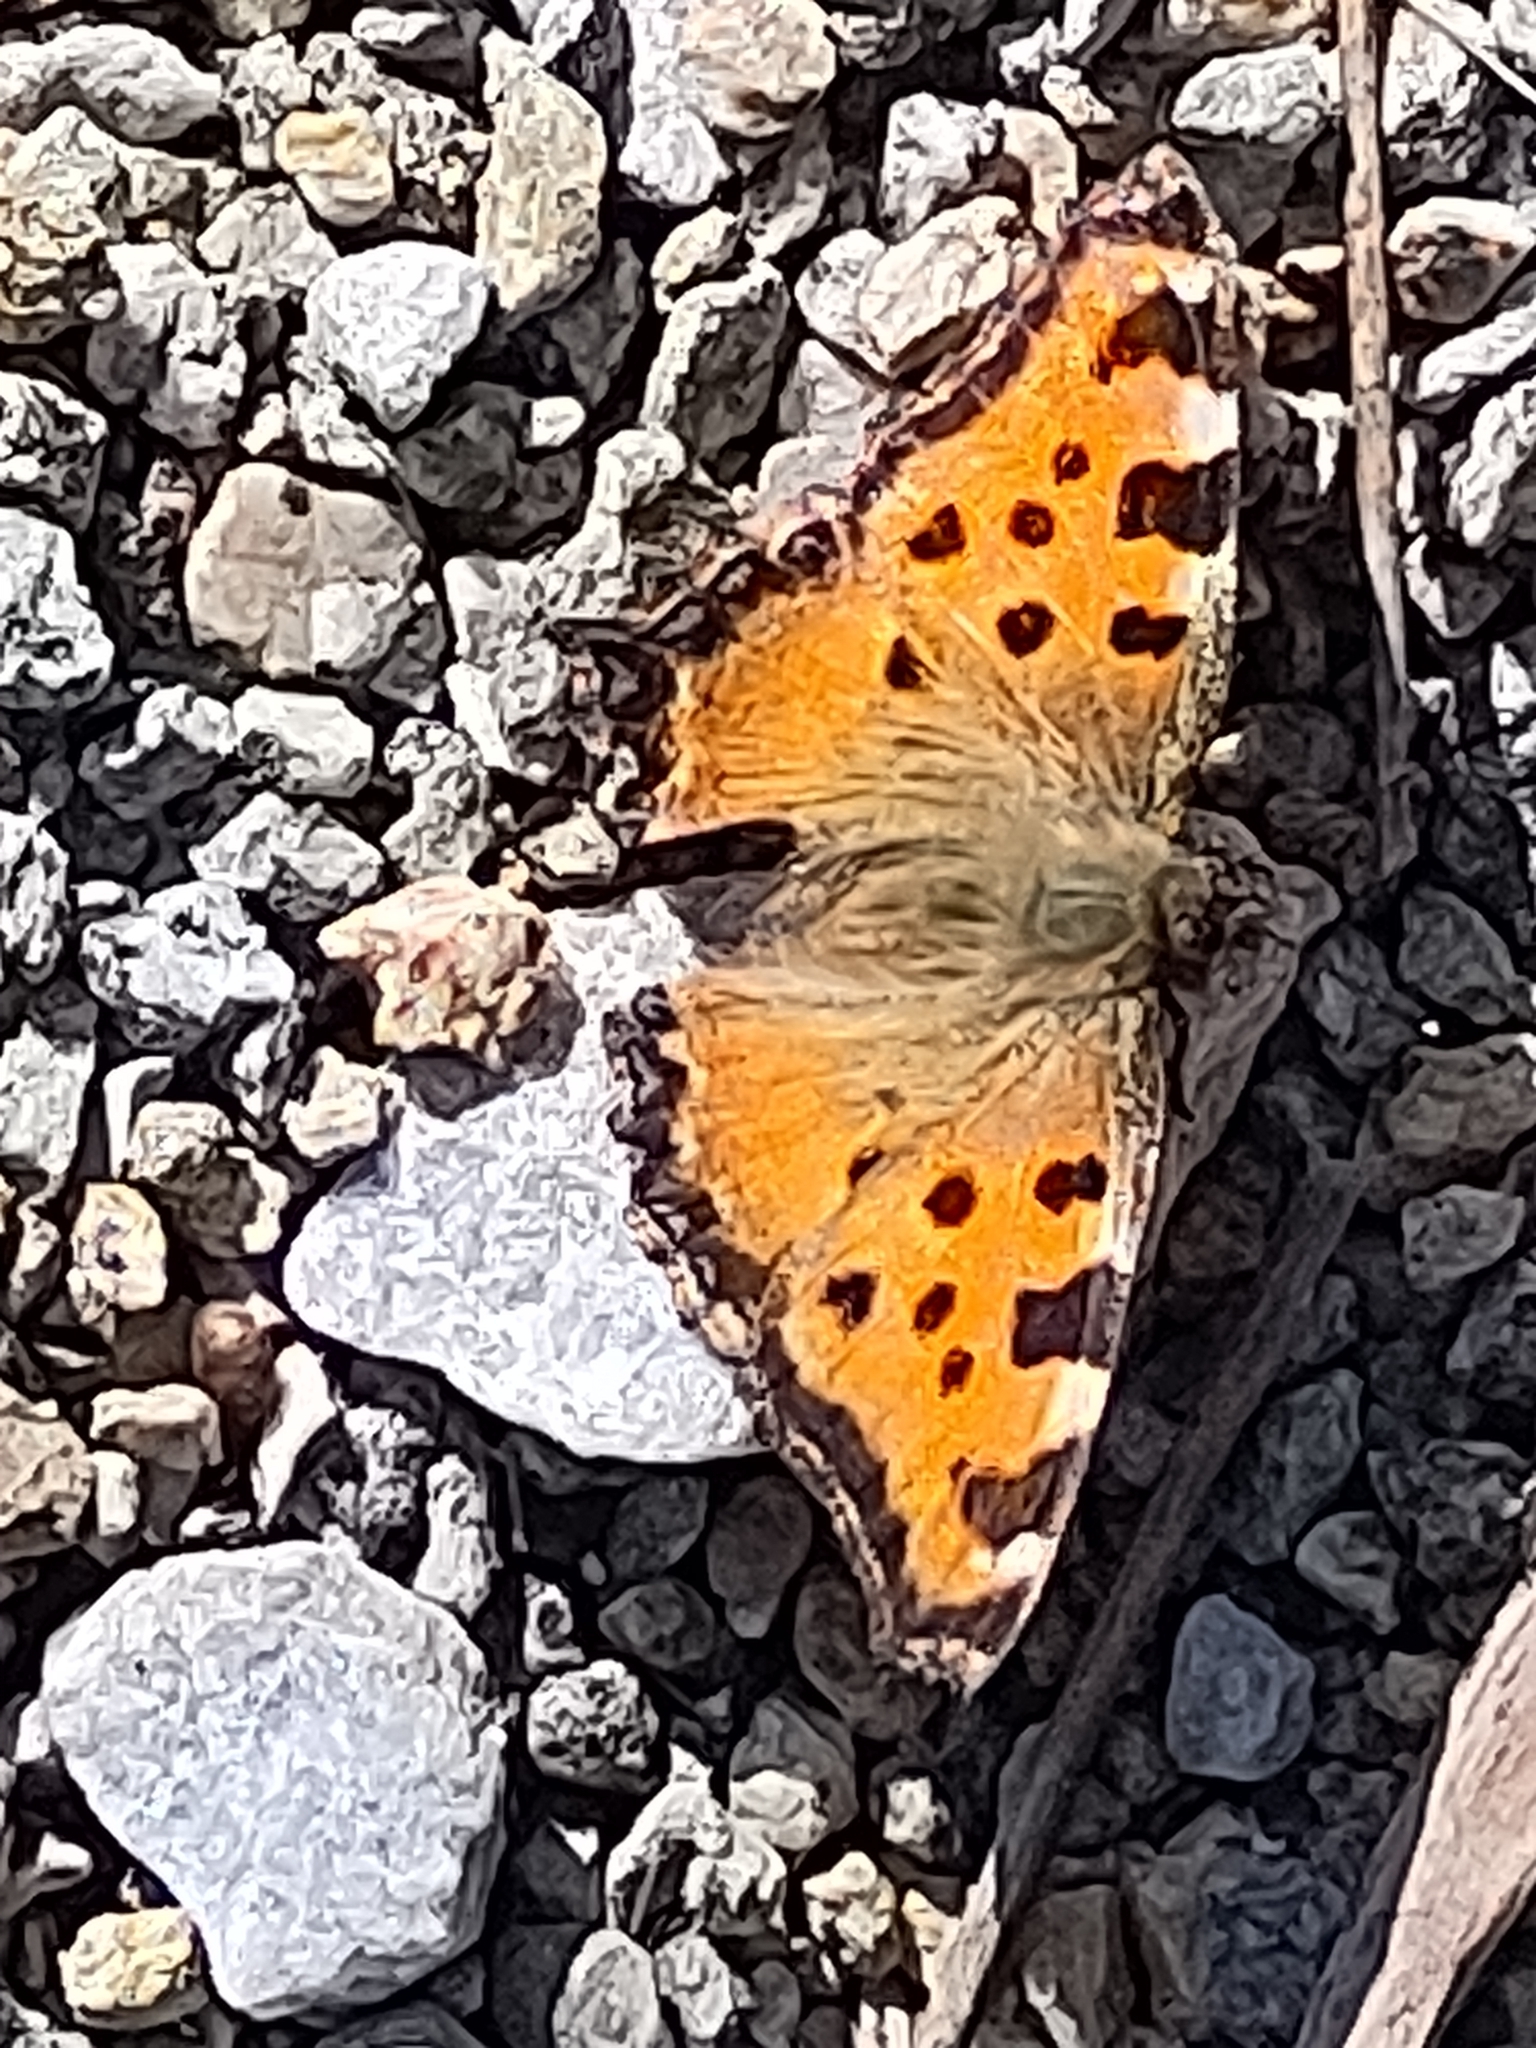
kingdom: Animalia
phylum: Arthropoda
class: Insecta
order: Lepidoptera
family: Nymphalidae
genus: Nymphalis
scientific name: Nymphalis polychloros
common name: Large tortoiseshell
